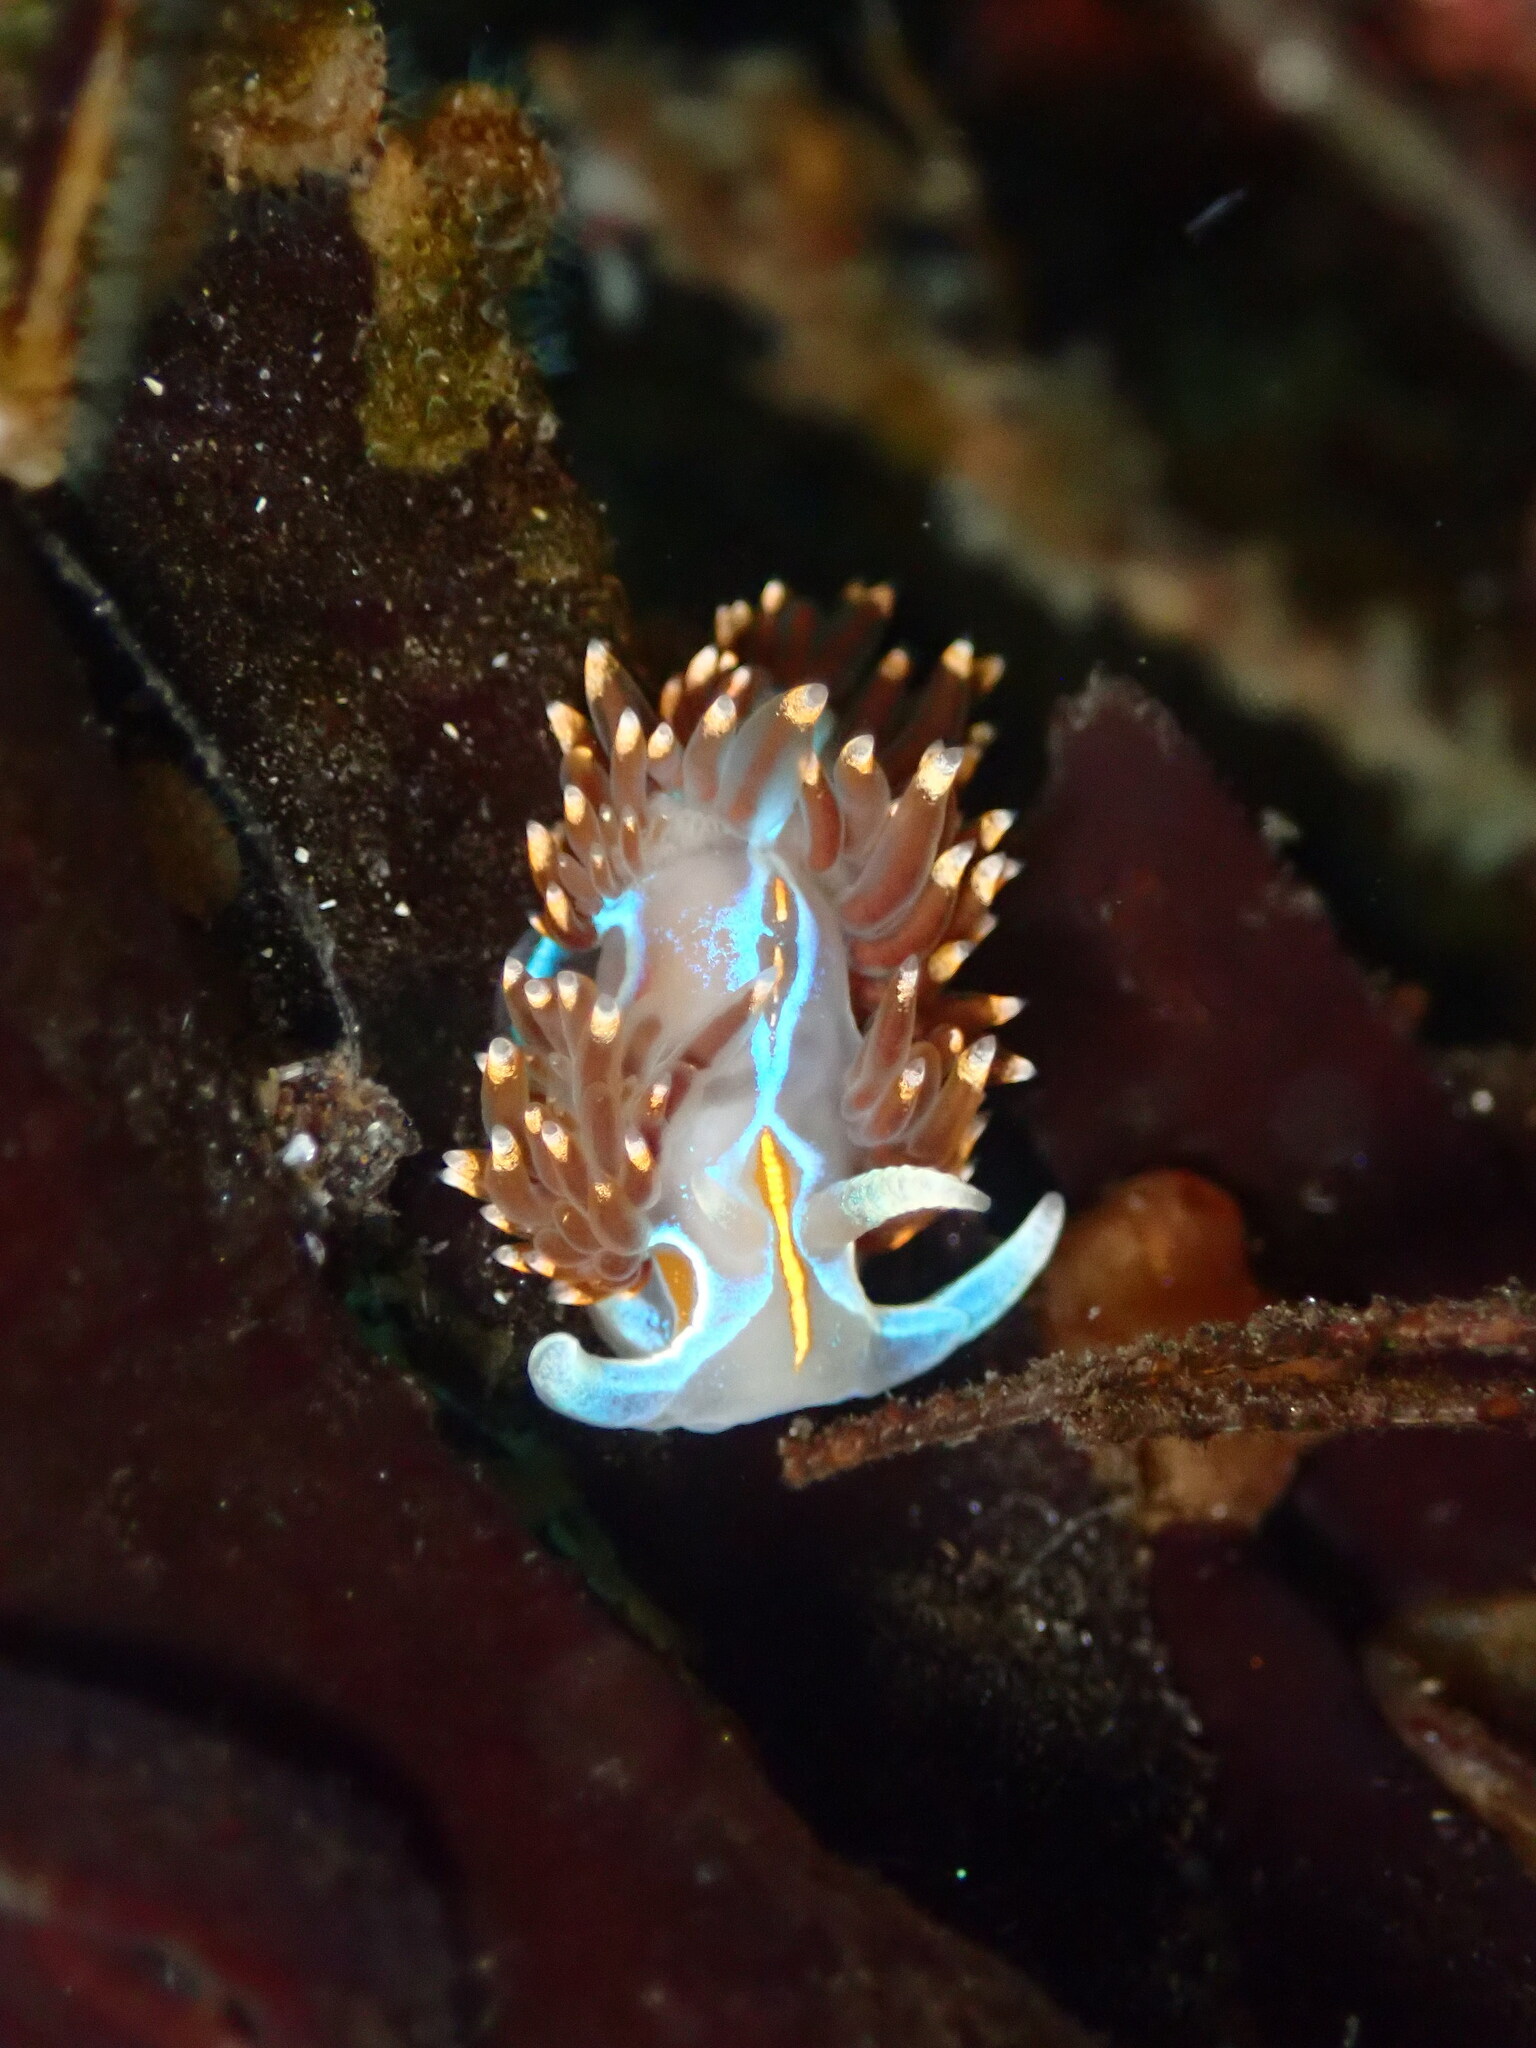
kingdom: Animalia
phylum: Mollusca
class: Gastropoda
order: Nudibranchia
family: Myrrhinidae
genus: Hermissenda
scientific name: Hermissenda opalescens
